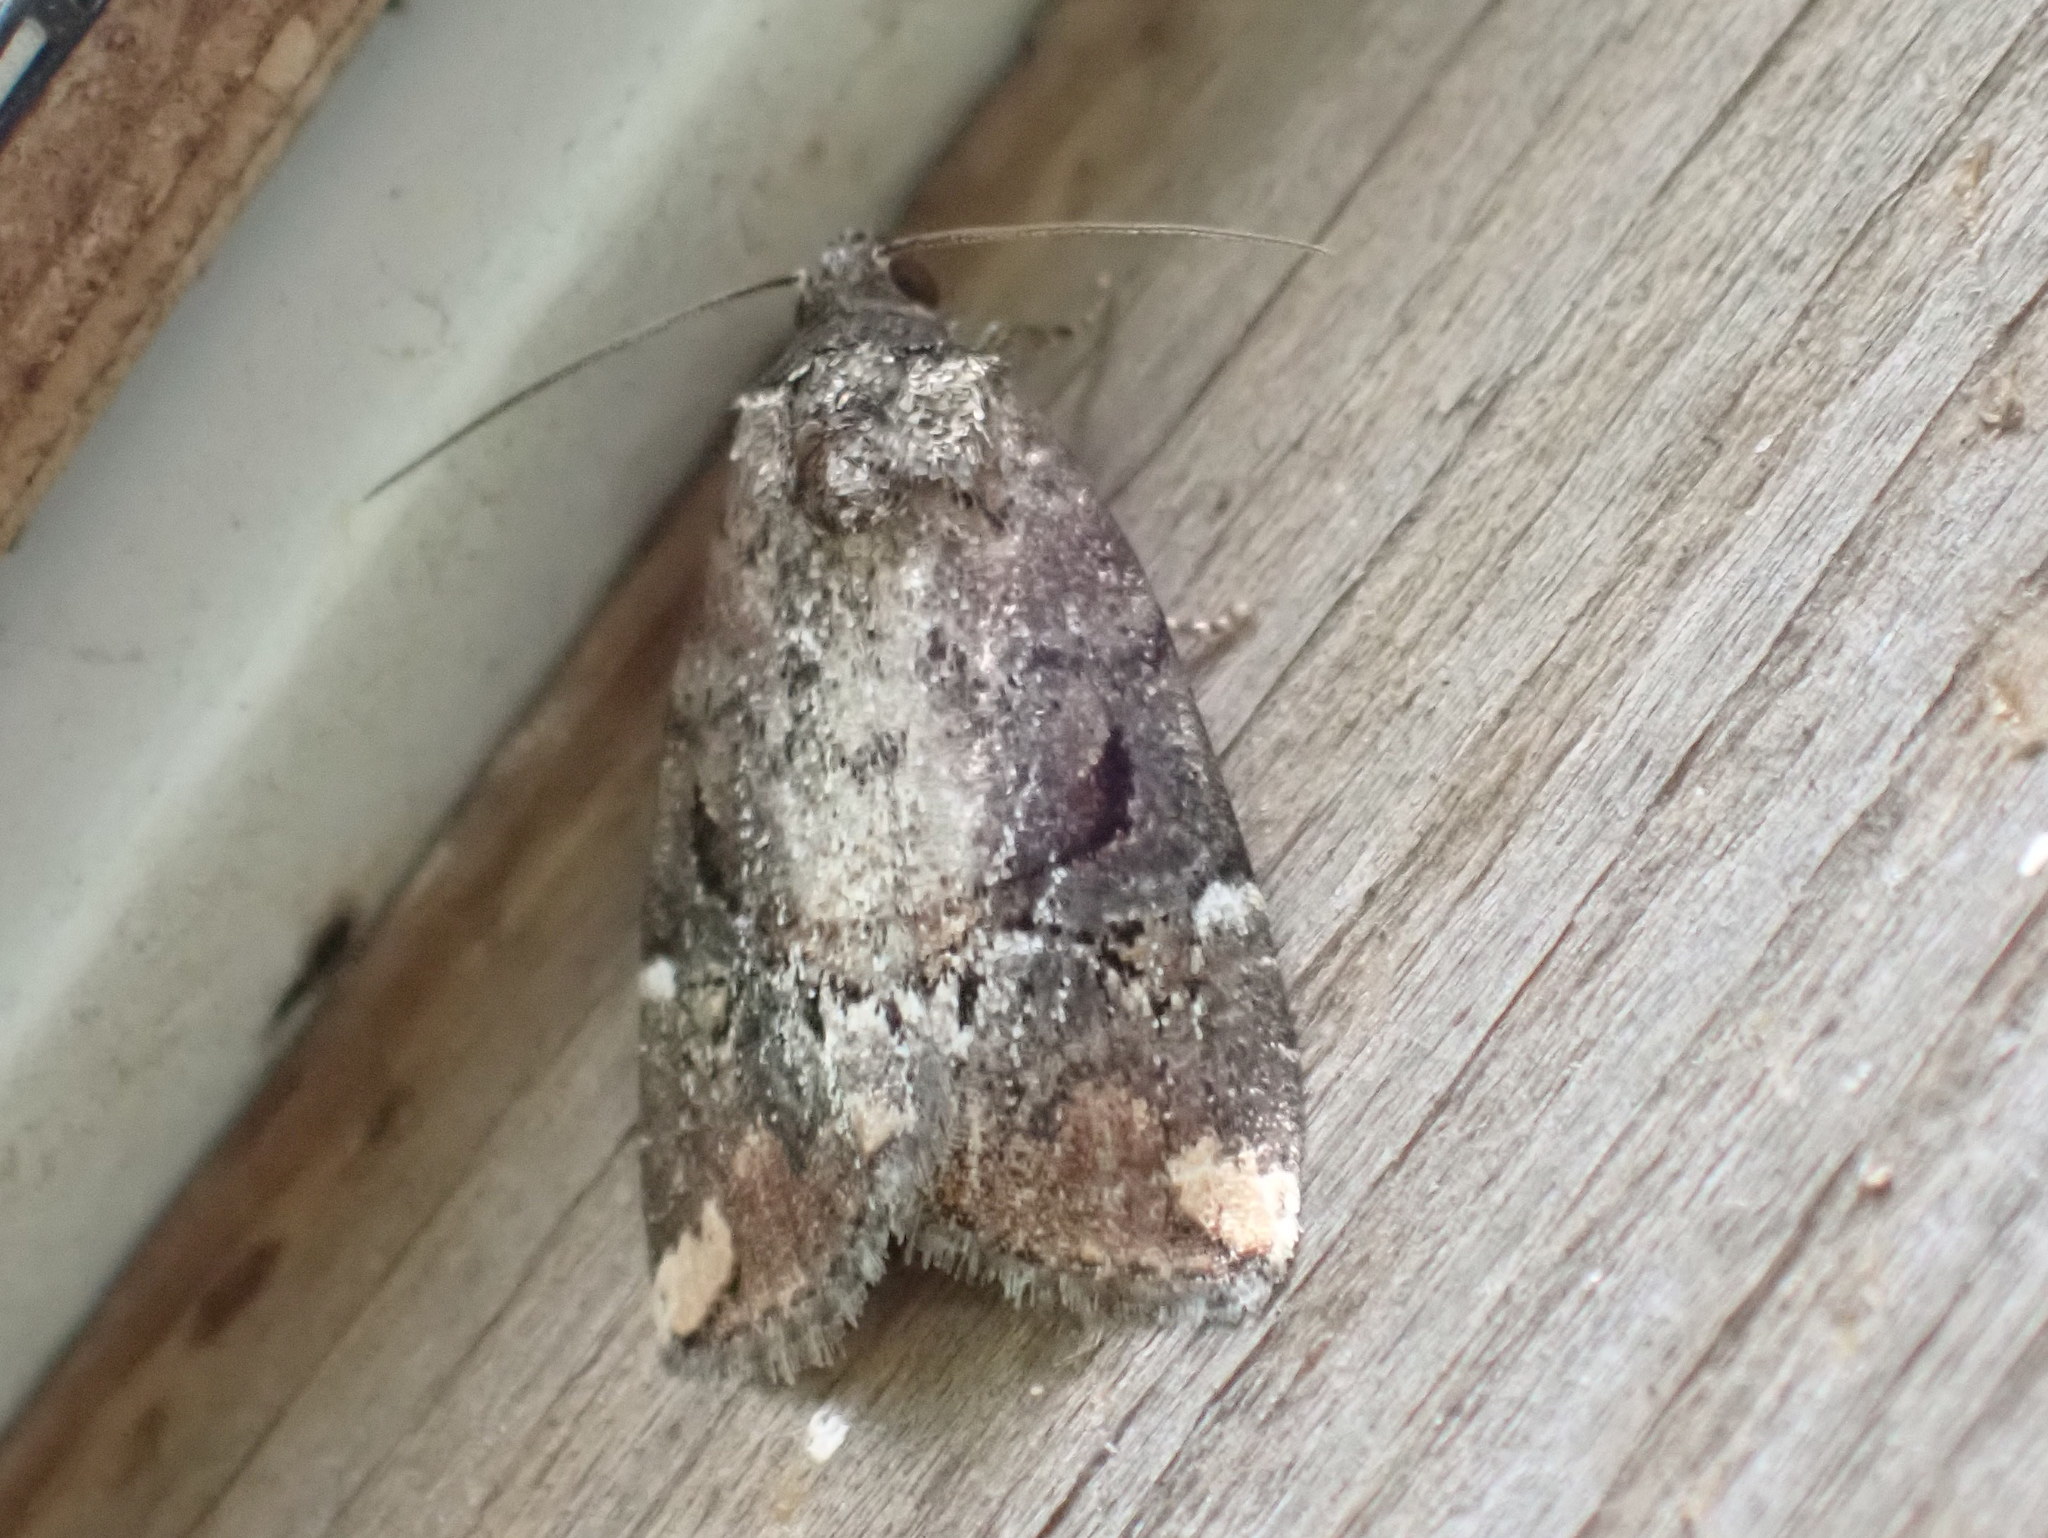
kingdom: Animalia
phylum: Arthropoda
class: Insecta
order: Lepidoptera
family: Noctuidae
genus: Elaphria
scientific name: Elaphria versicolor
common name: Fir harlequin
